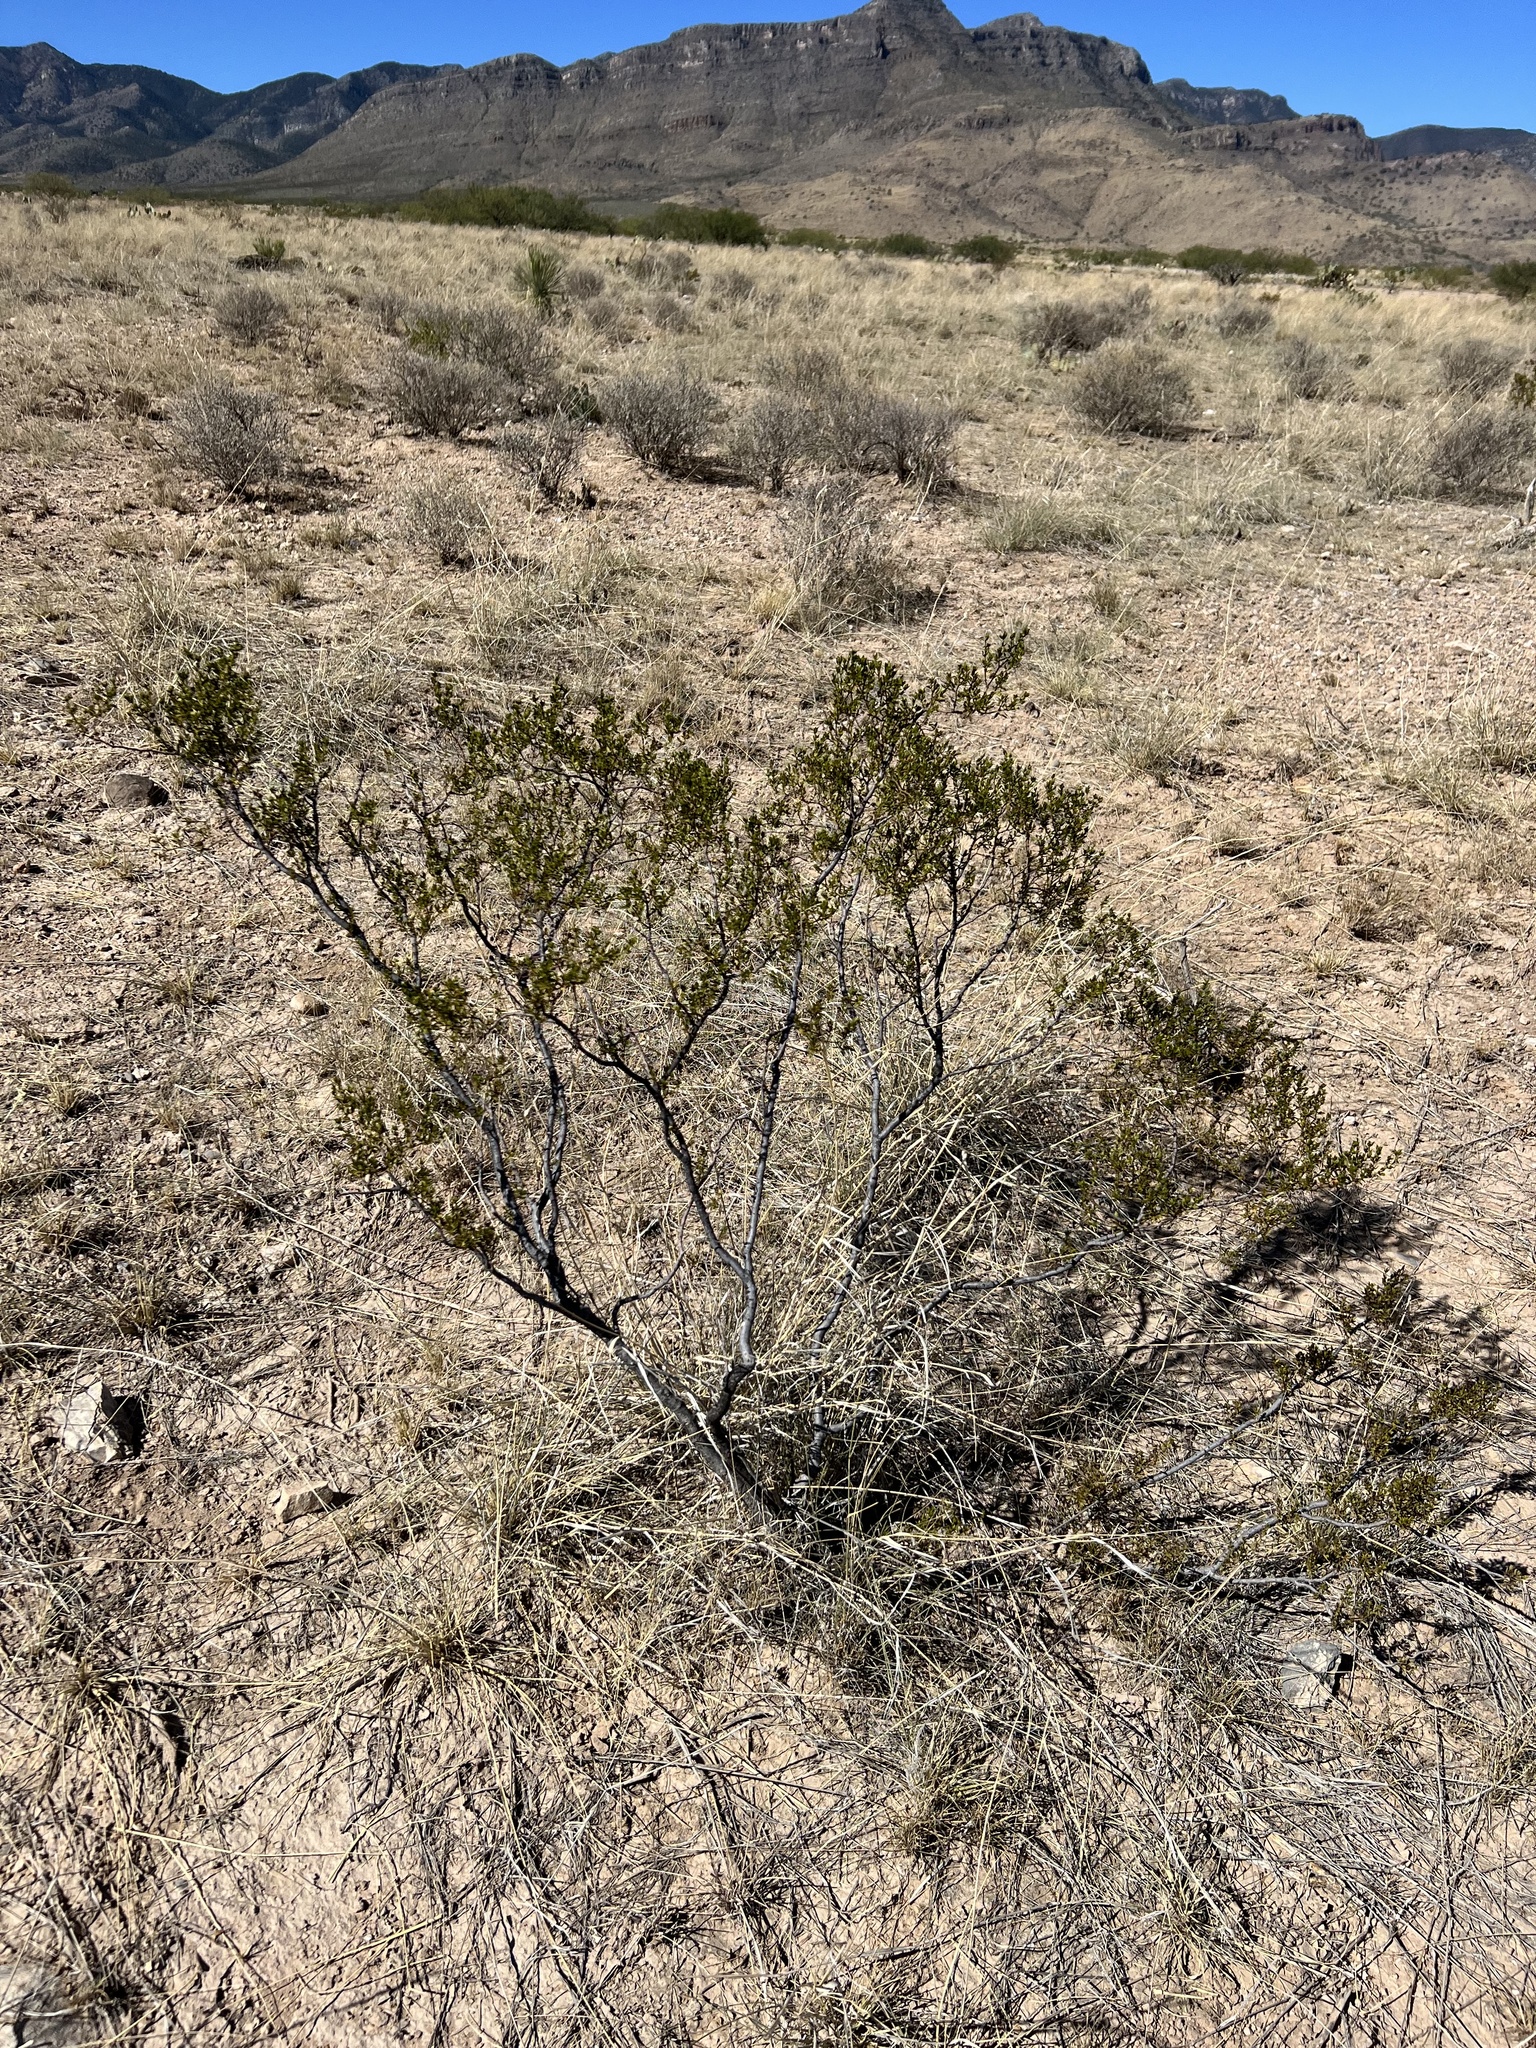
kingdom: Plantae
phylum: Tracheophyta
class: Magnoliopsida
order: Zygophyllales
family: Zygophyllaceae
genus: Larrea
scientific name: Larrea tridentata
